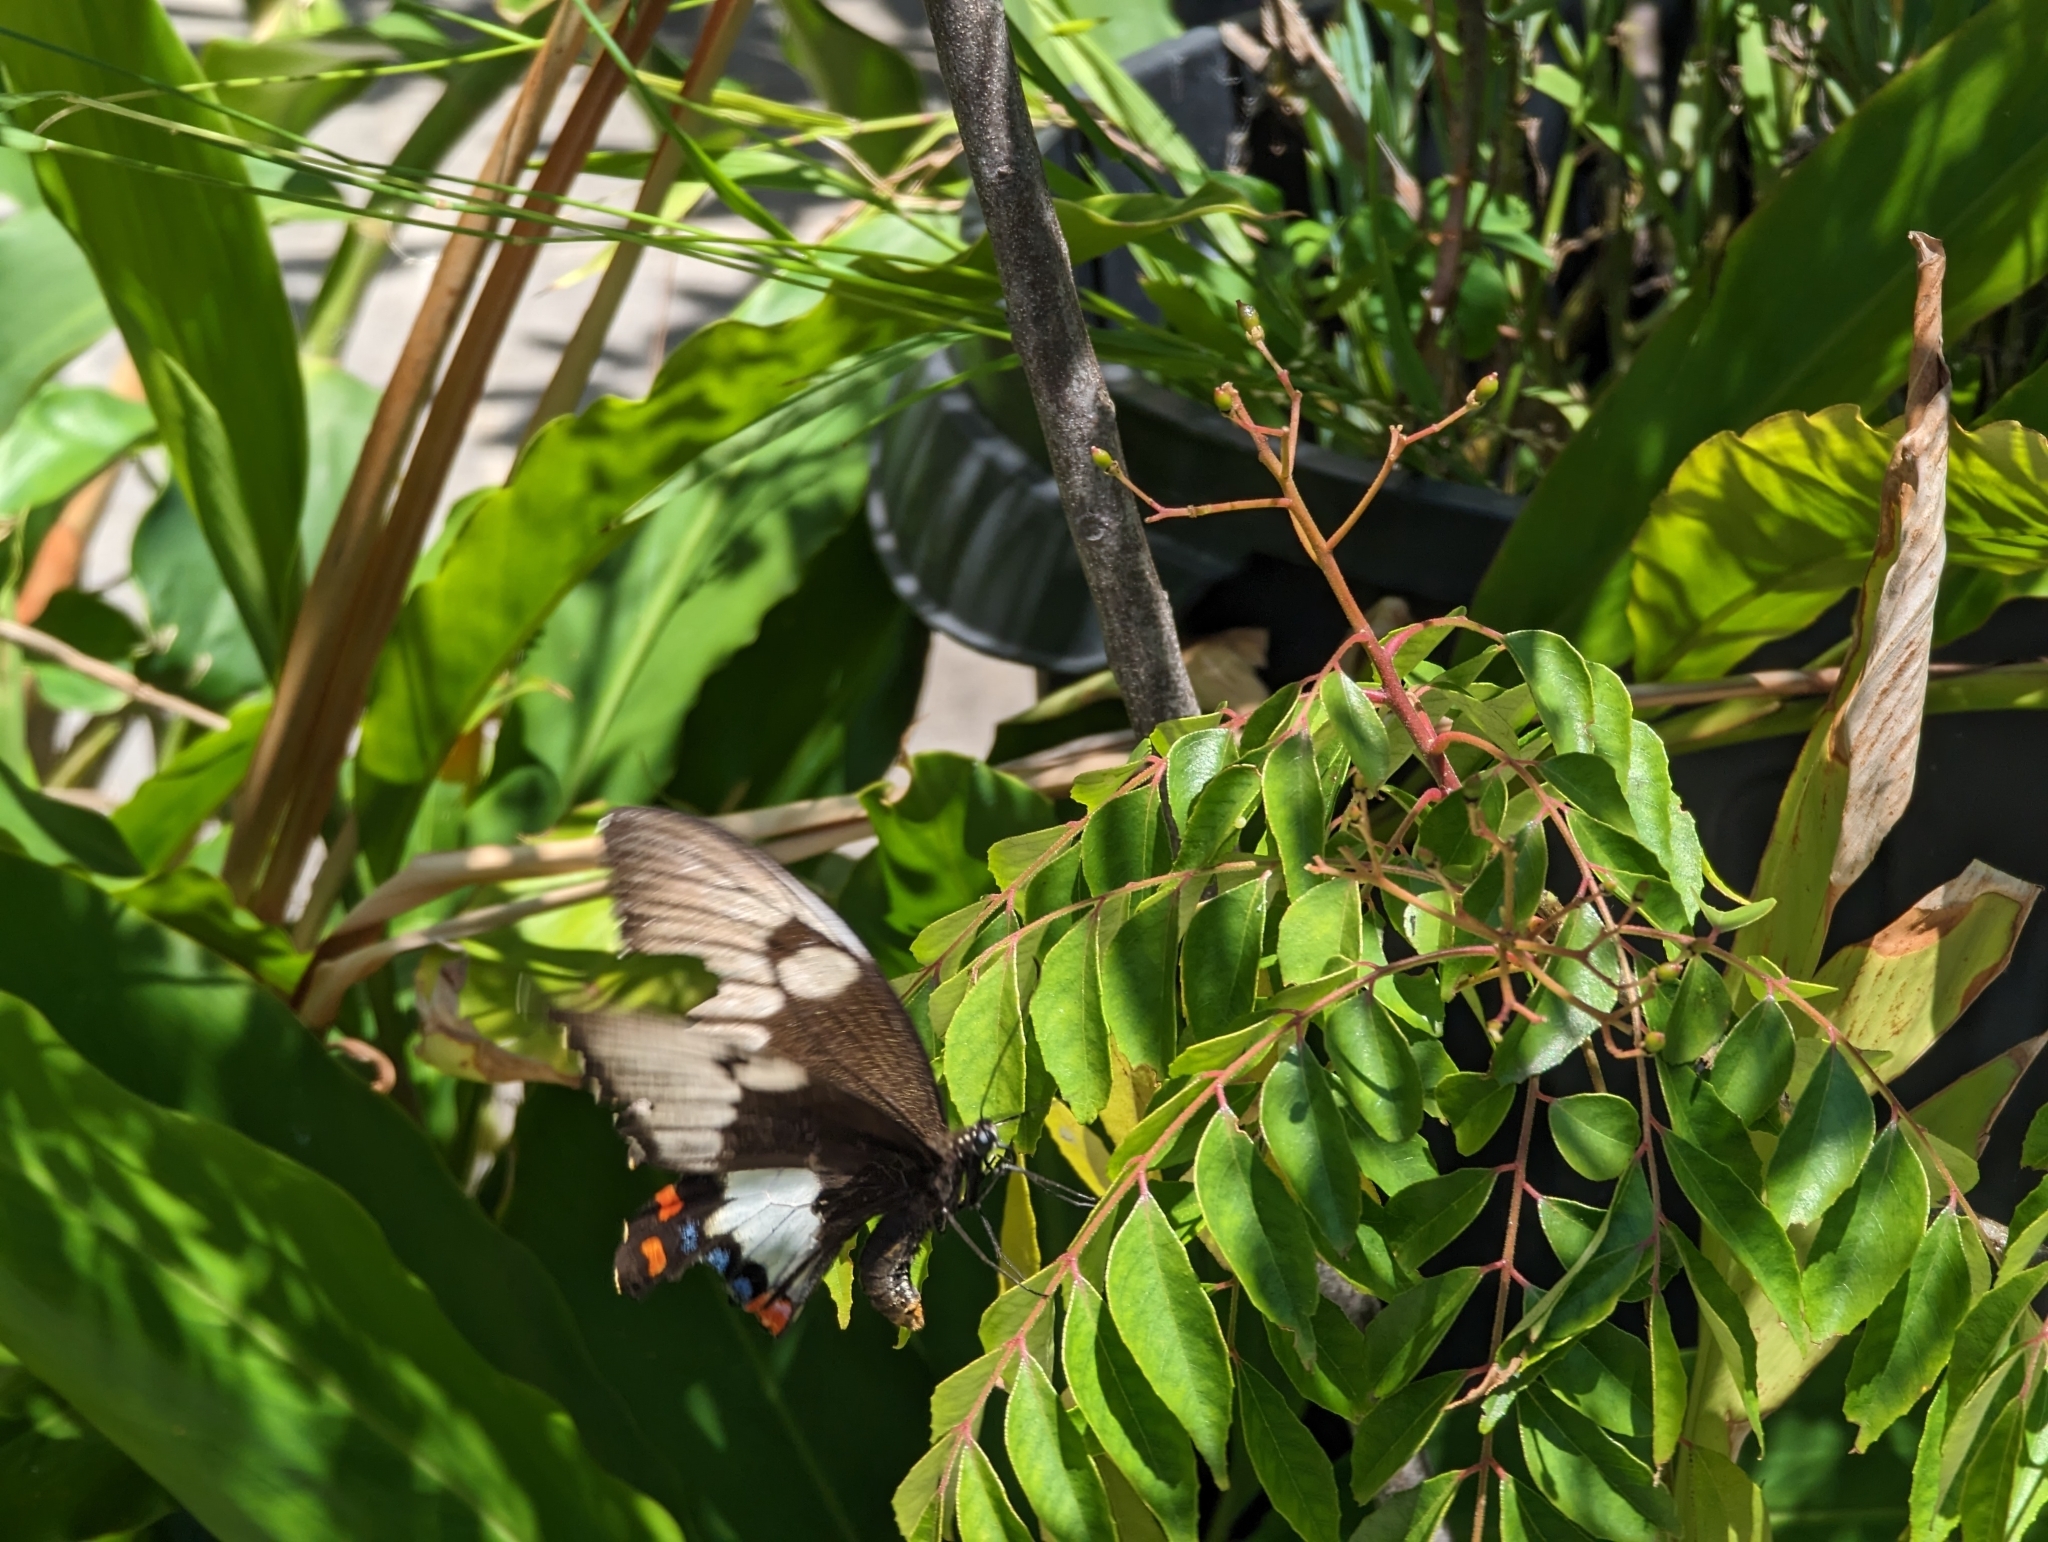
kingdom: Animalia
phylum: Arthropoda
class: Insecta
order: Lepidoptera
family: Papilionidae
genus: Papilio
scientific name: Papilio aegeus
